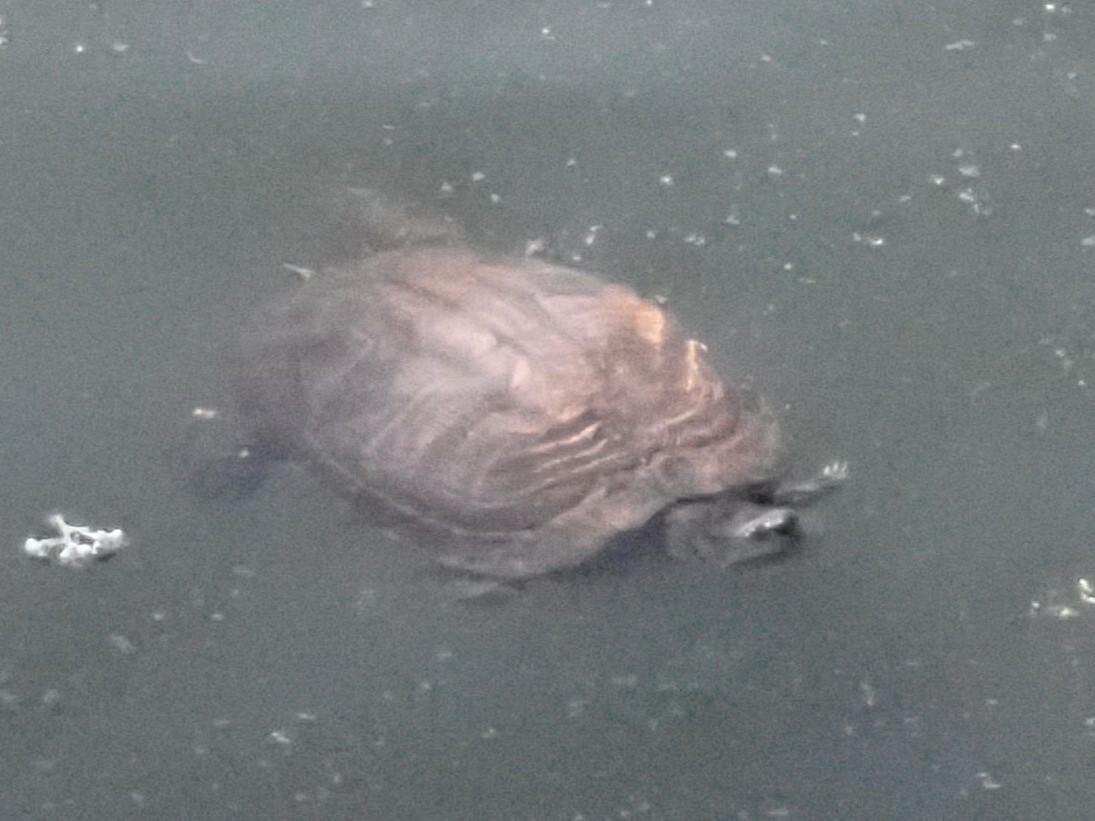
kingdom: Animalia
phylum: Chordata
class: Testudines
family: Emydidae
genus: Trachemys
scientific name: Trachemys scripta
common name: Slider
